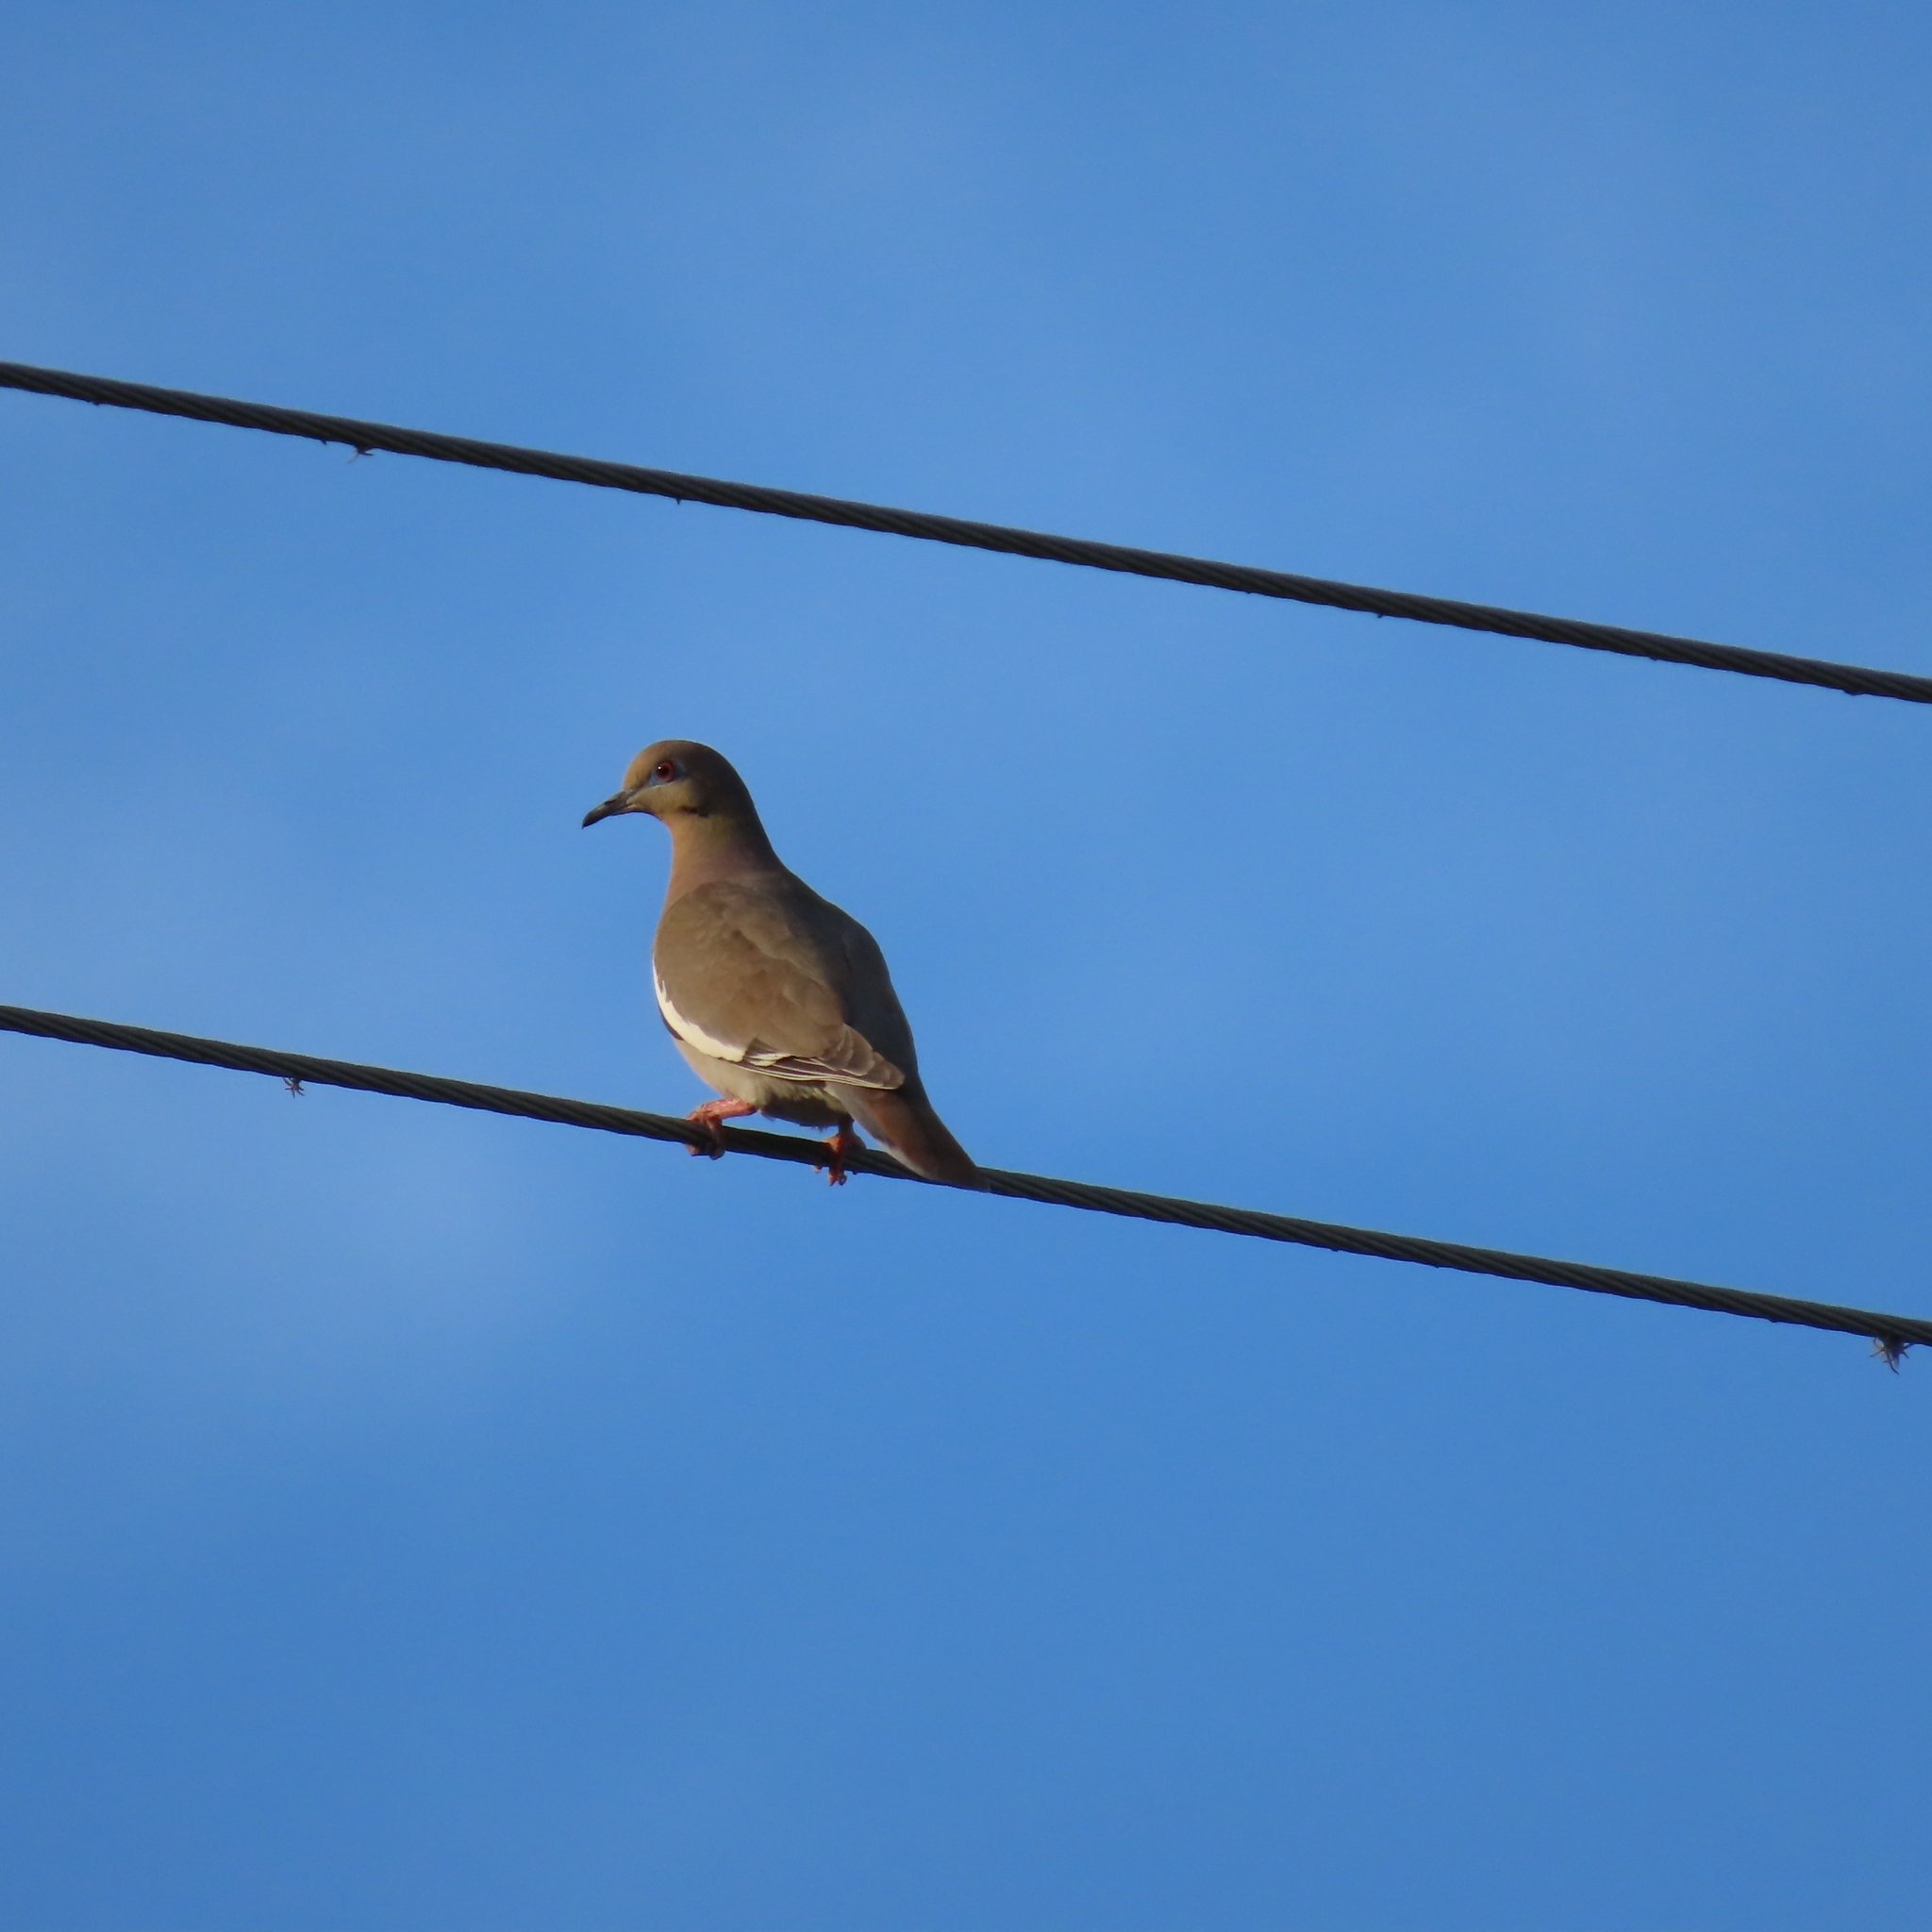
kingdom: Animalia
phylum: Chordata
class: Aves
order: Columbiformes
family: Columbidae
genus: Zenaida
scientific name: Zenaida asiatica
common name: White-winged dove
